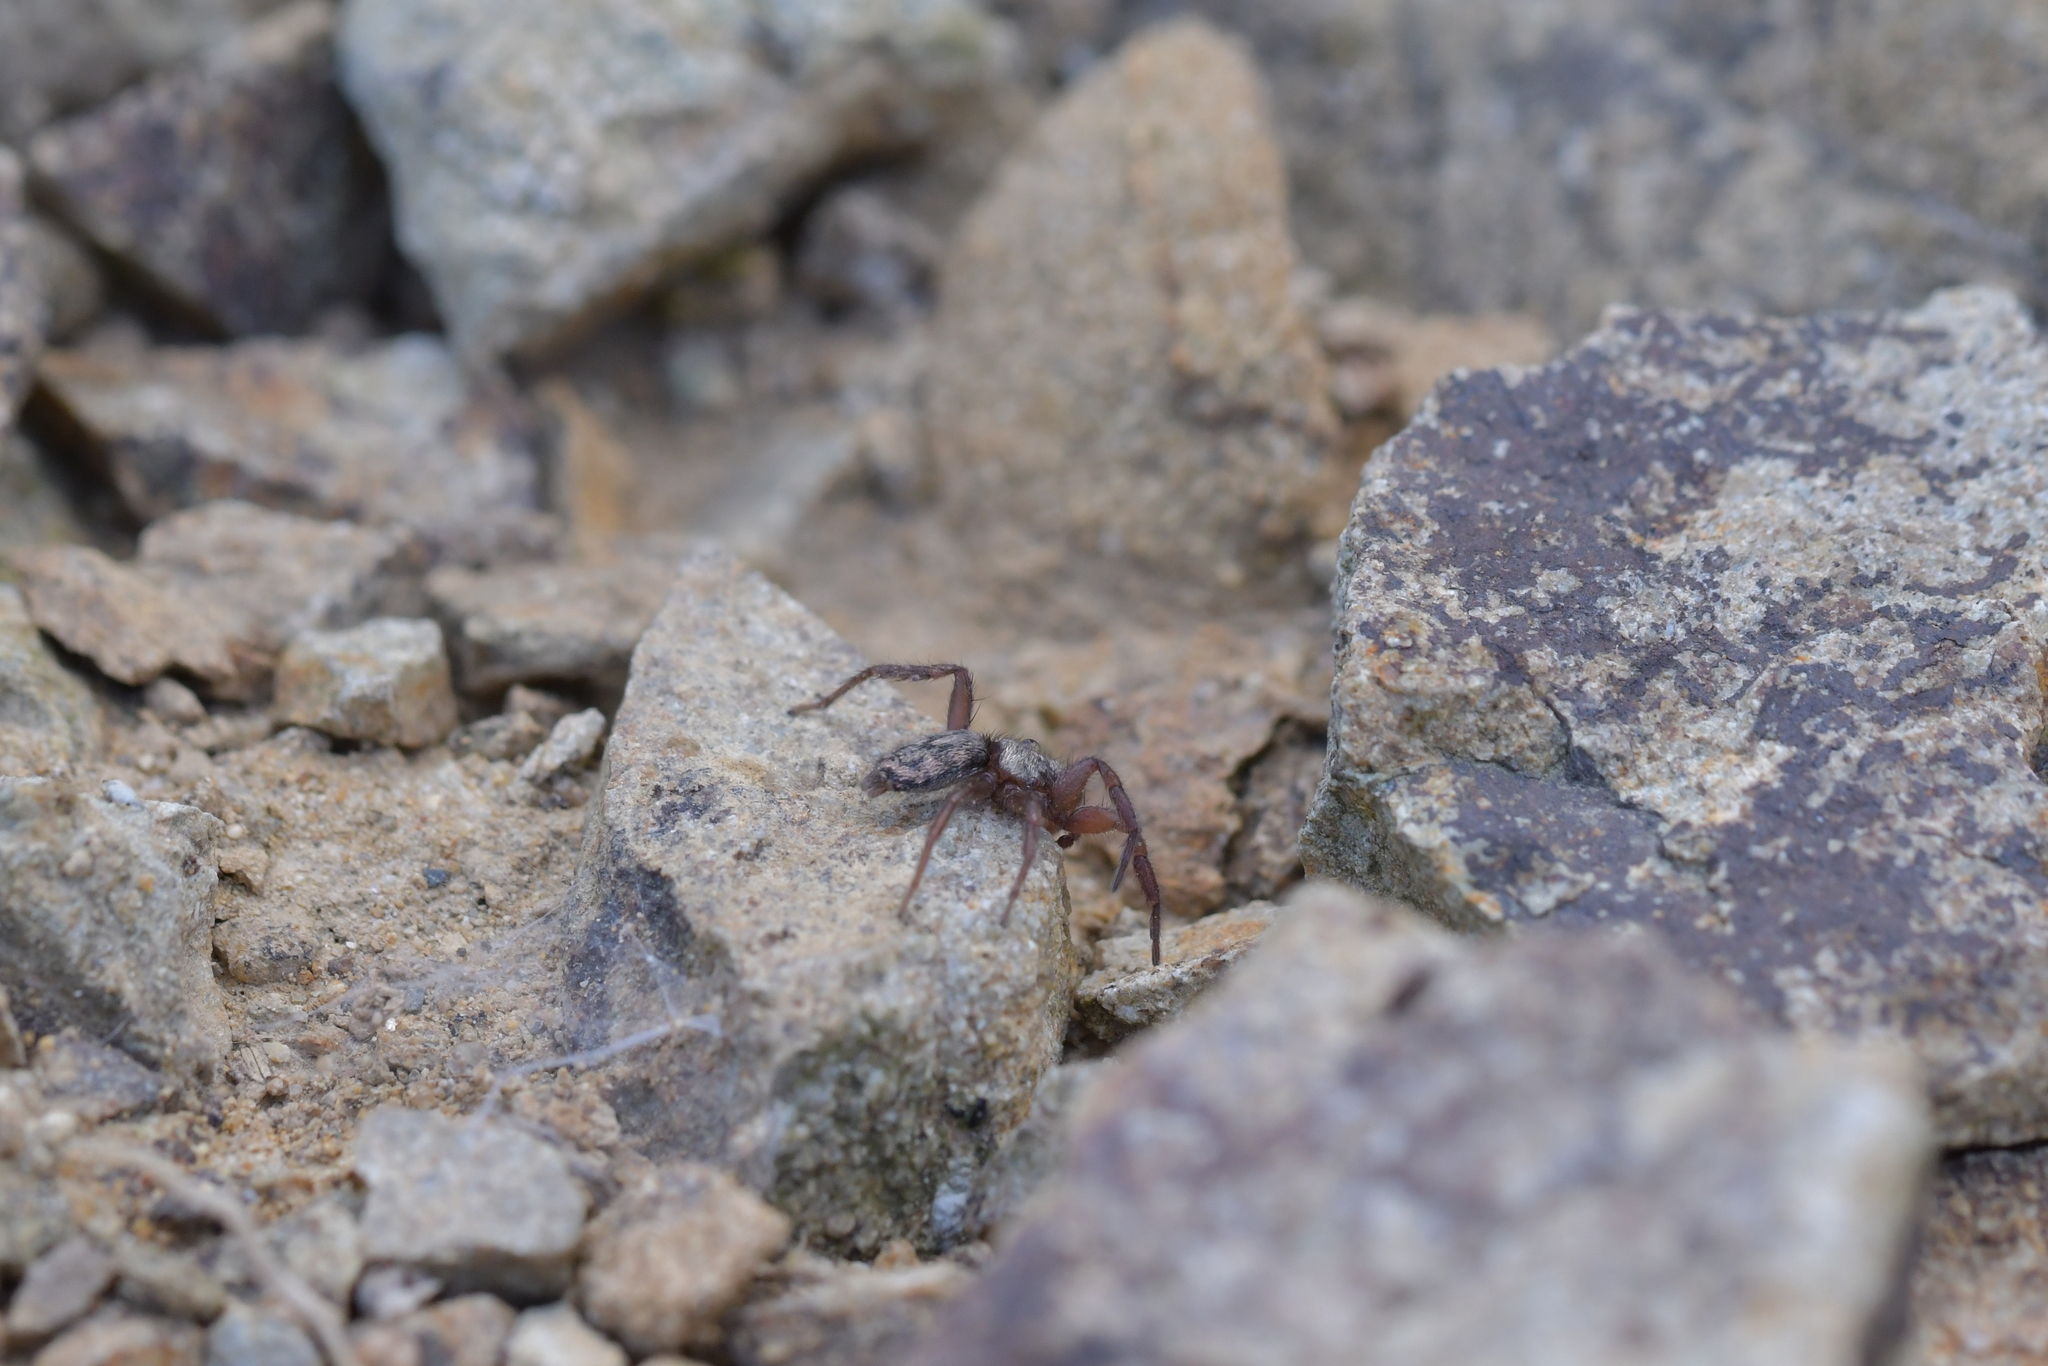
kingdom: Animalia
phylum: Arthropoda
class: Arachnida
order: Araneae
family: Gnaphosidae
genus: Scotophaeus
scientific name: Scotophaeus pretiosus
